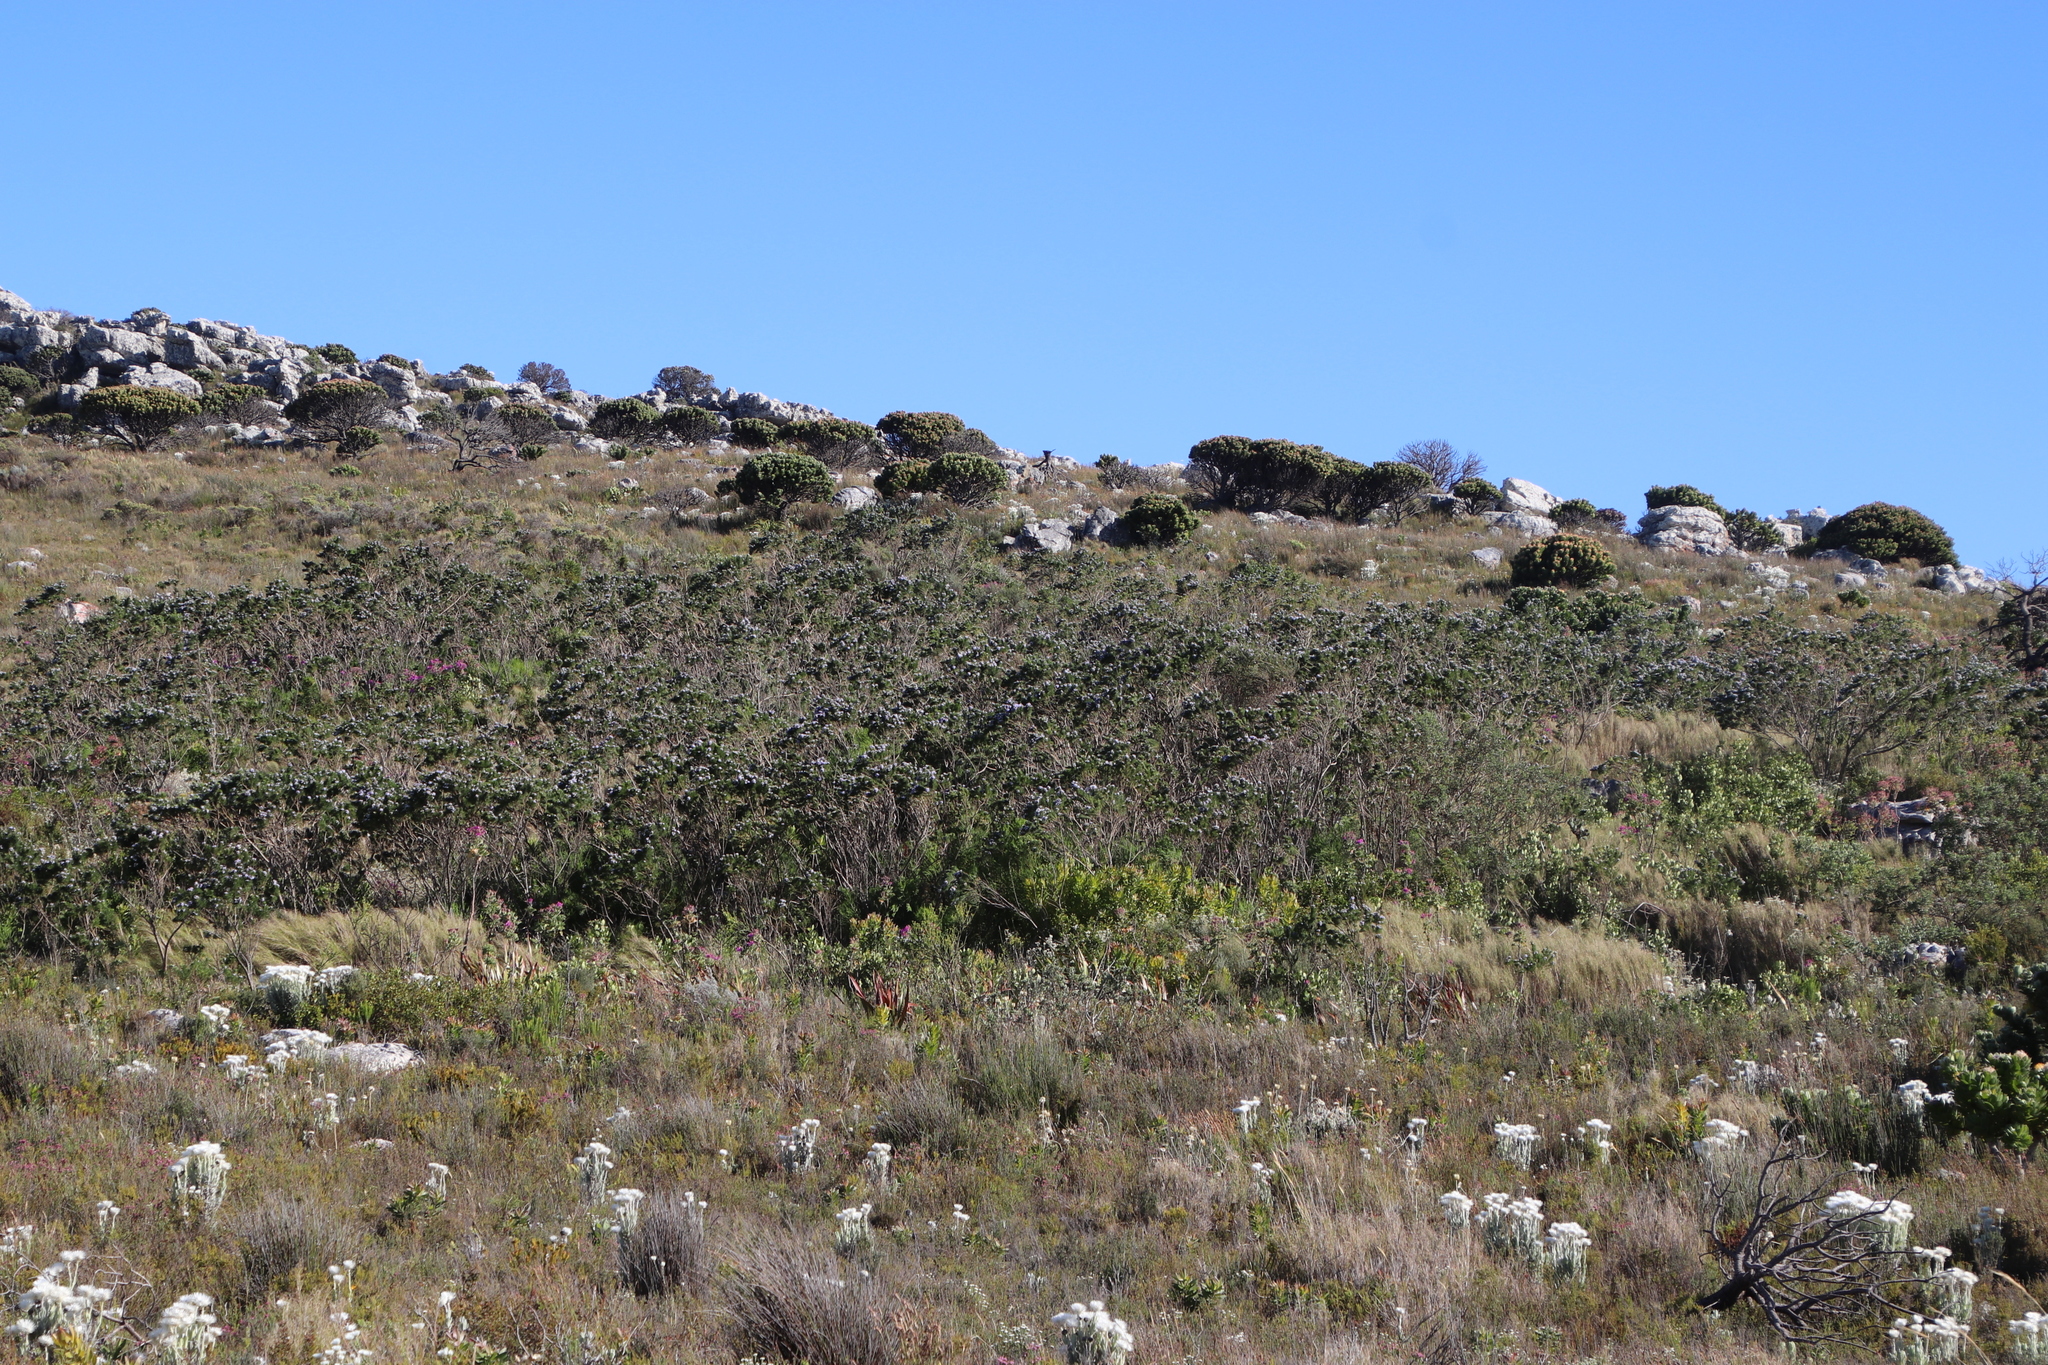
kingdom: Plantae
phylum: Tracheophyta
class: Magnoliopsida
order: Fabales
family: Fabaceae
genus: Psoralea
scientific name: Psoralea pinnata
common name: African scurfpea
